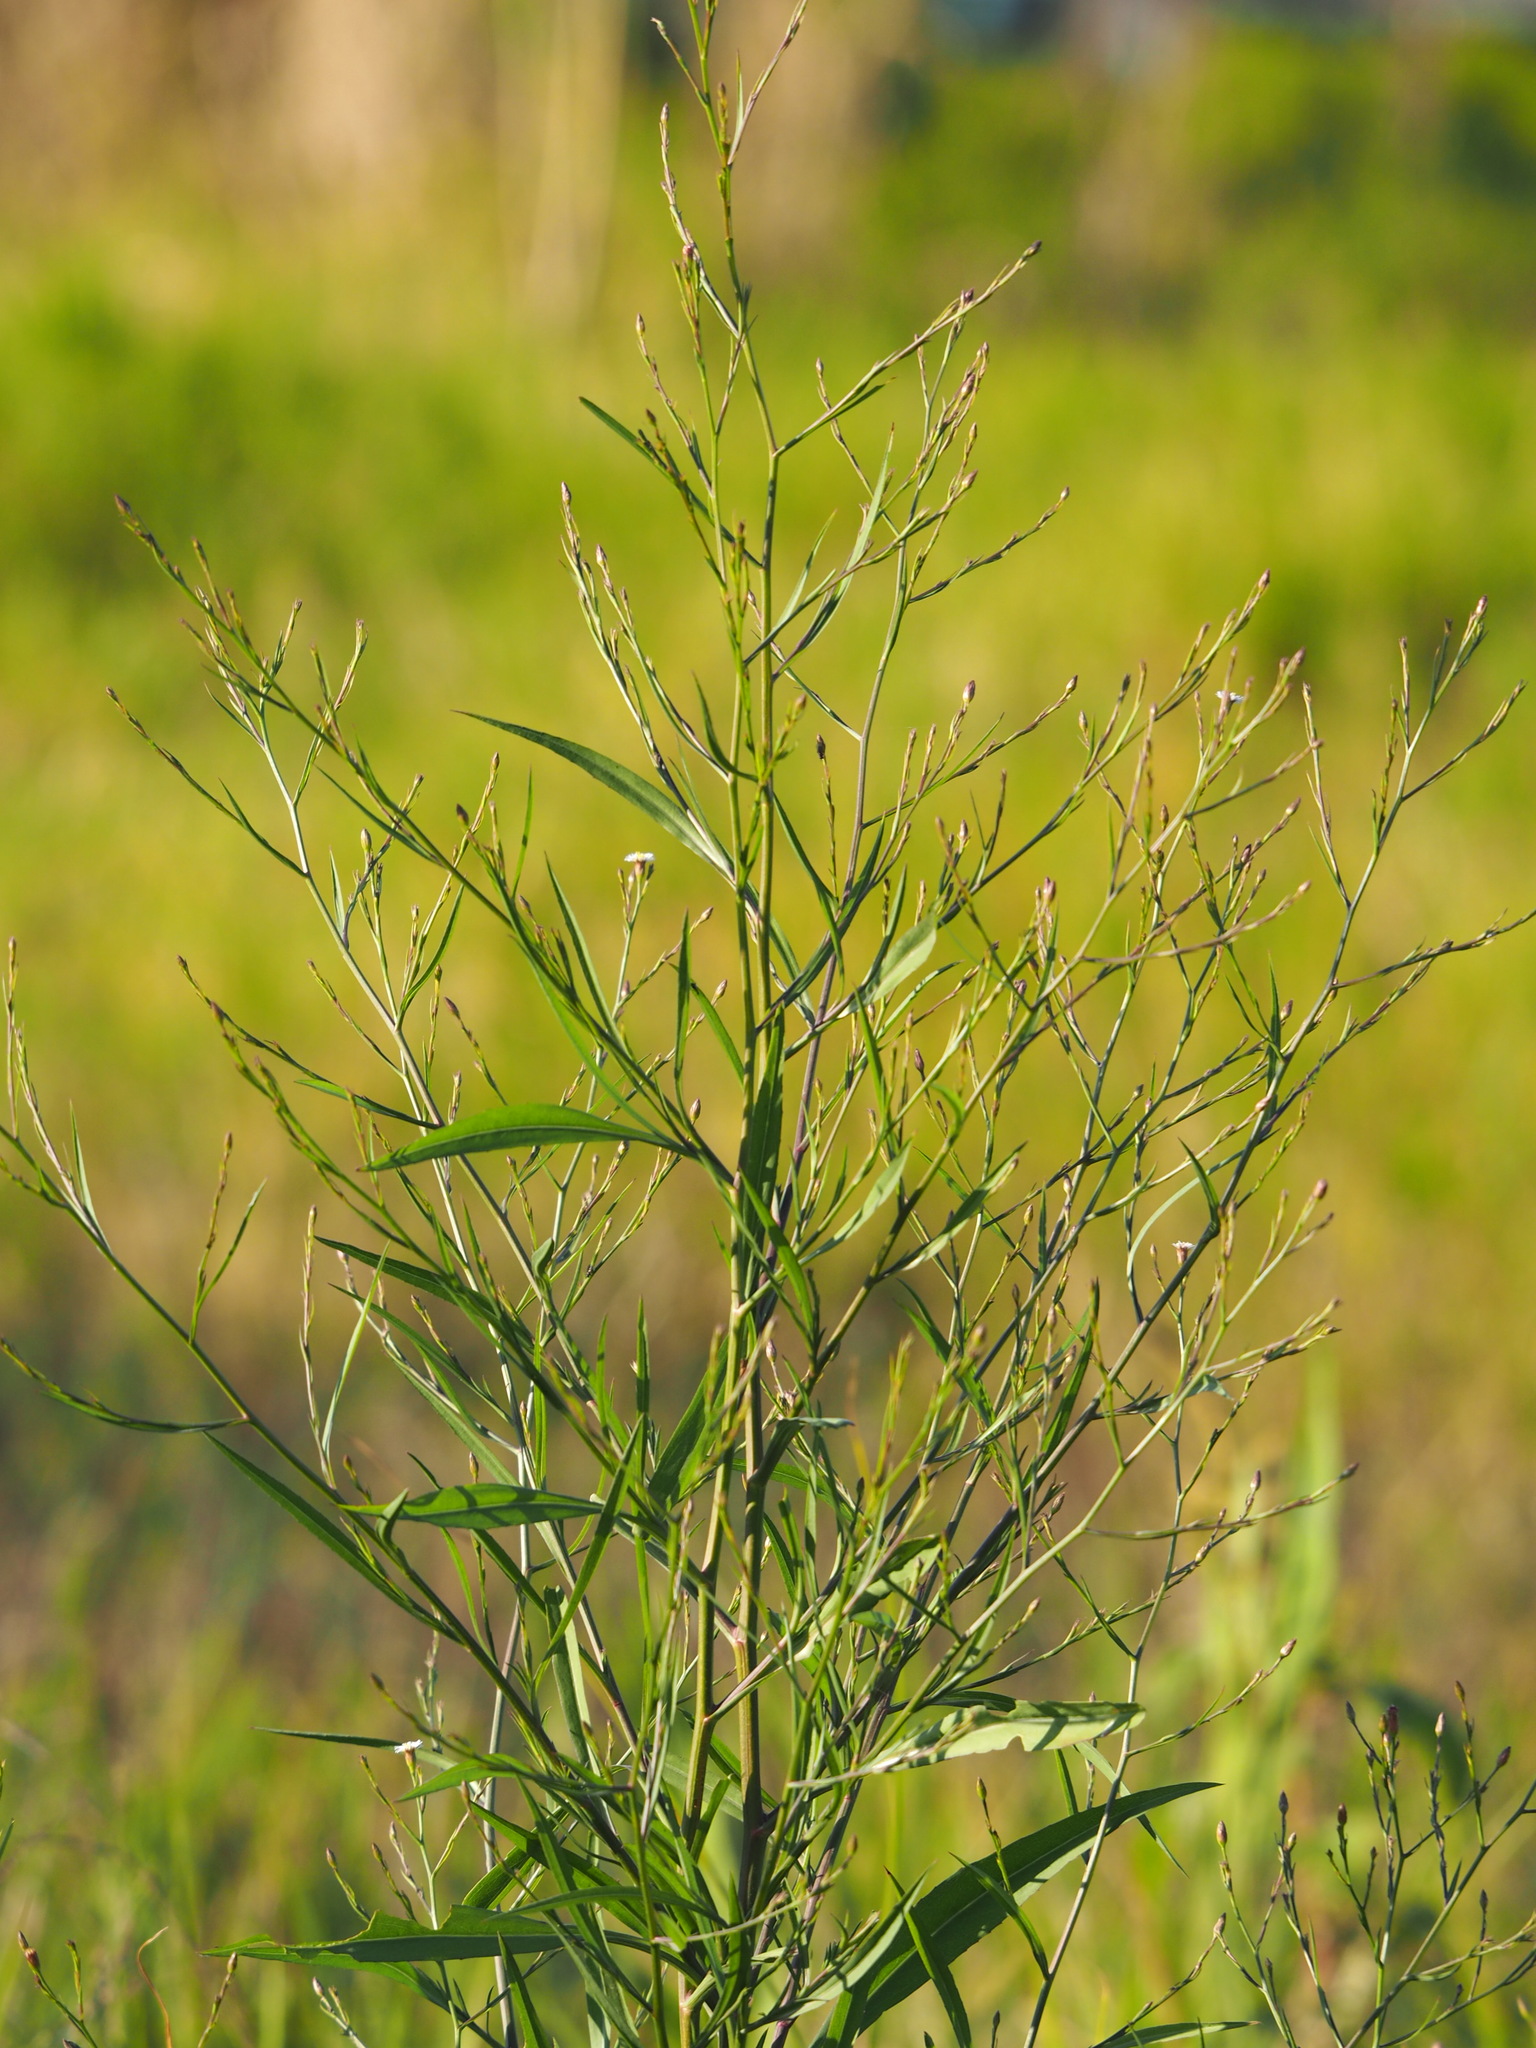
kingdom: Plantae
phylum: Tracheophyta
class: Magnoliopsida
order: Asterales
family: Asteraceae
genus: Symphyotrichum
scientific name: Symphyotrichum subulatum
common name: Annual saltmarsh aster
